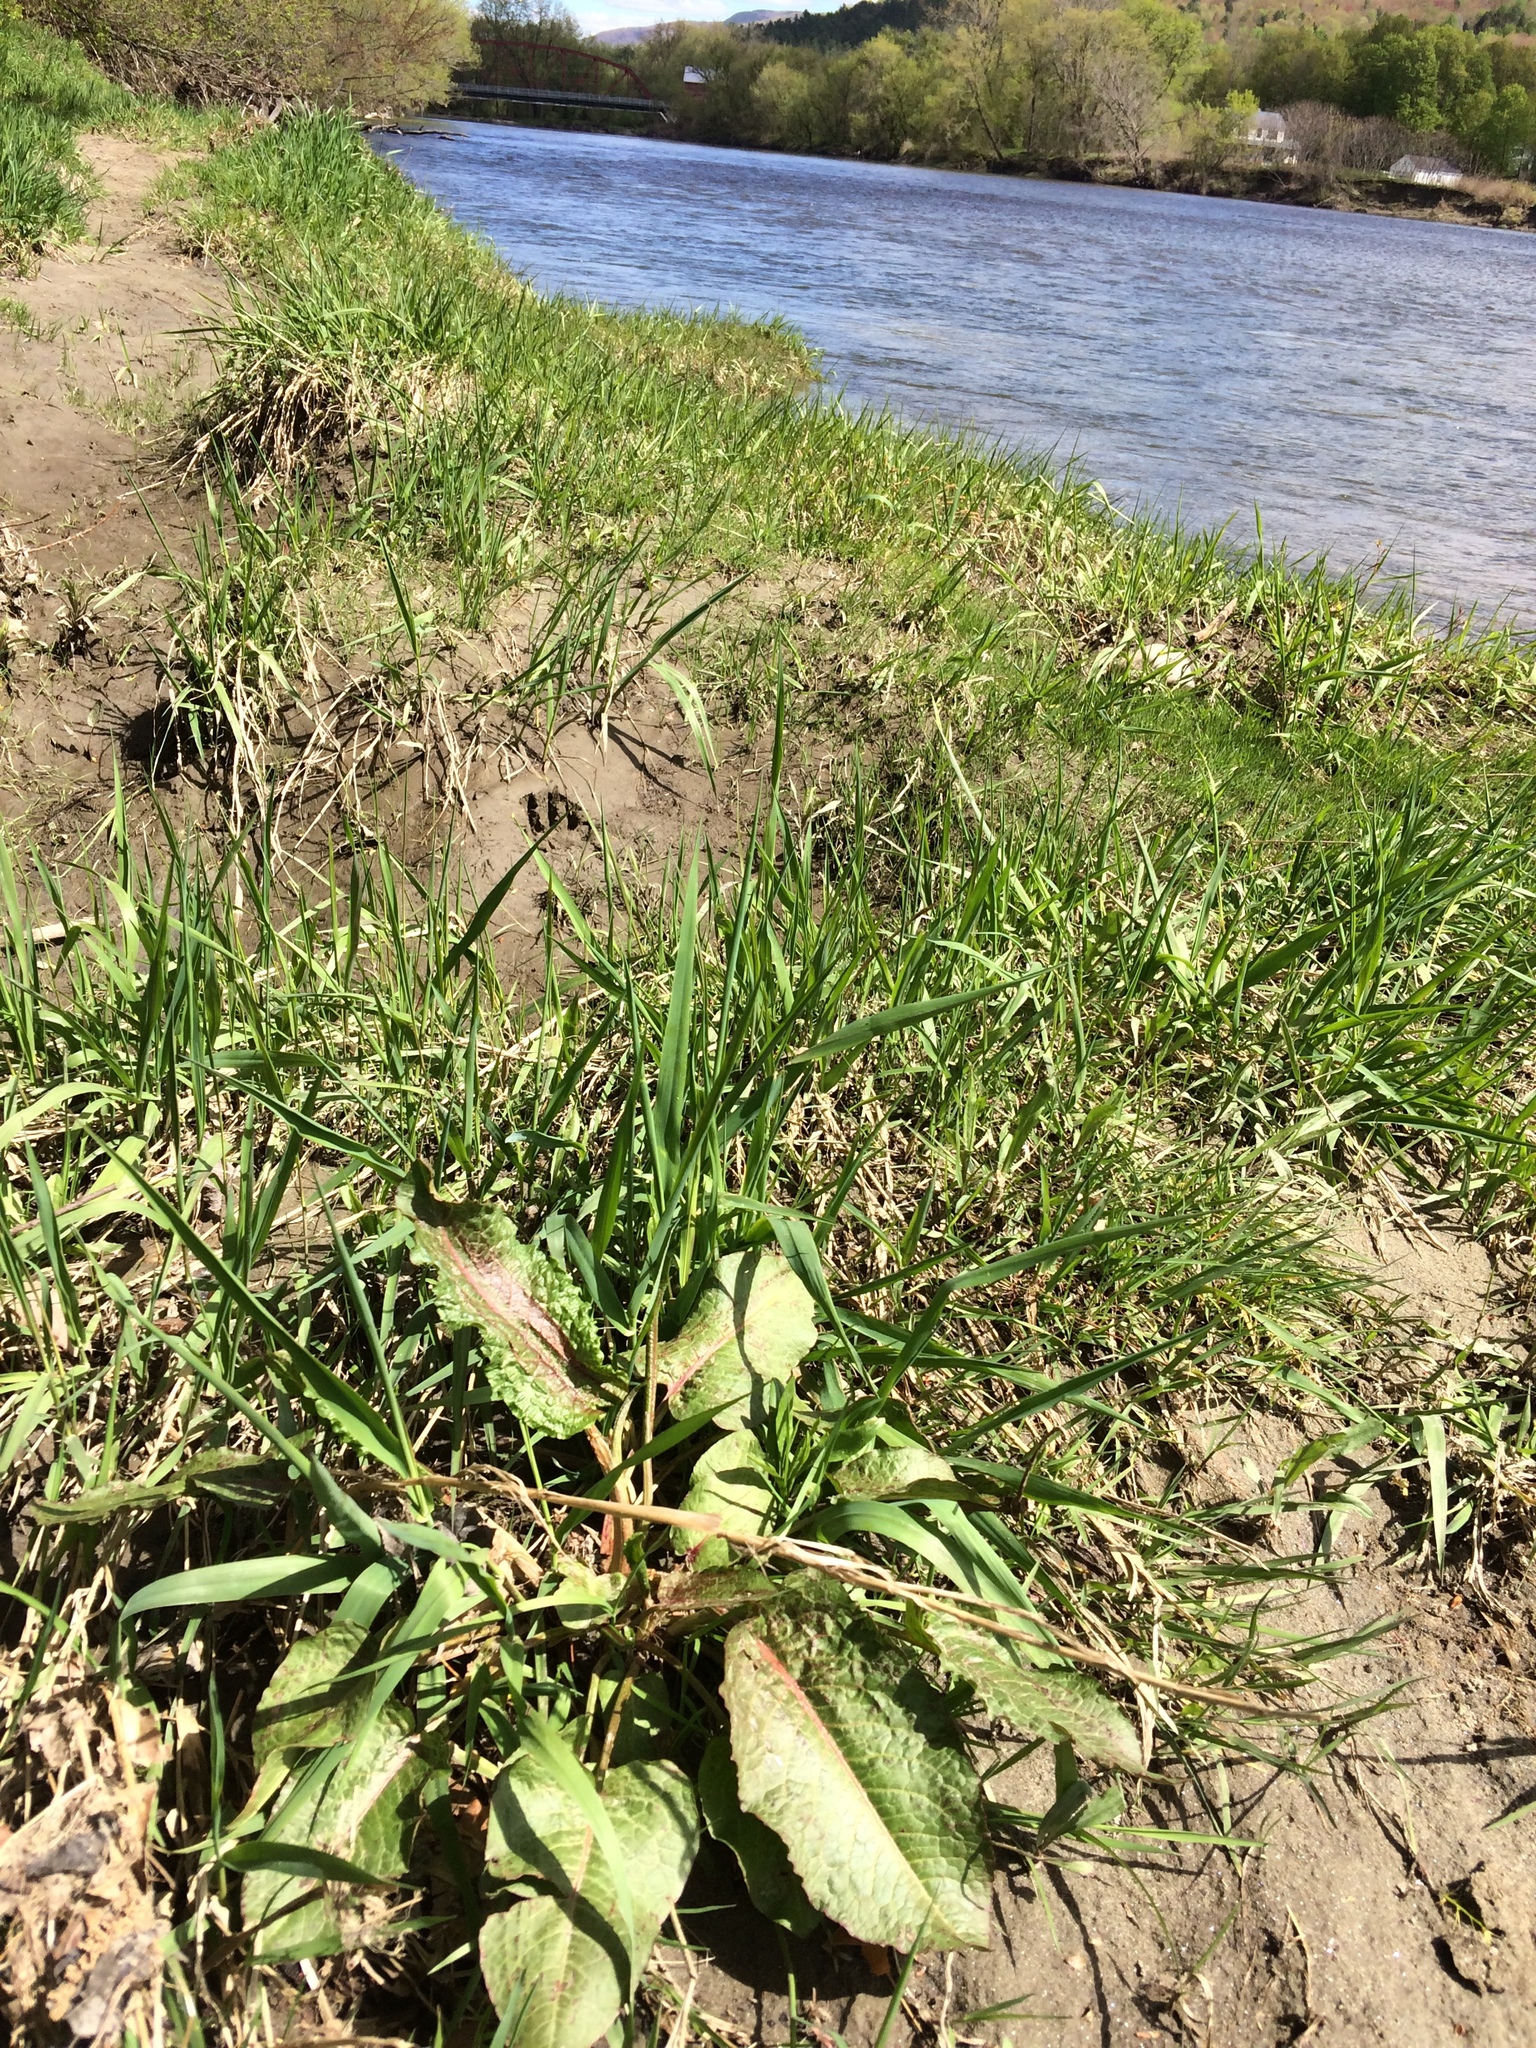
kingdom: Plantae
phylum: Tracheophyta
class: Magnoliopsida
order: Caryophyllales
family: Polygonaceae
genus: Rumex
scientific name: Rumex obtusifolius
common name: Bitter dock
